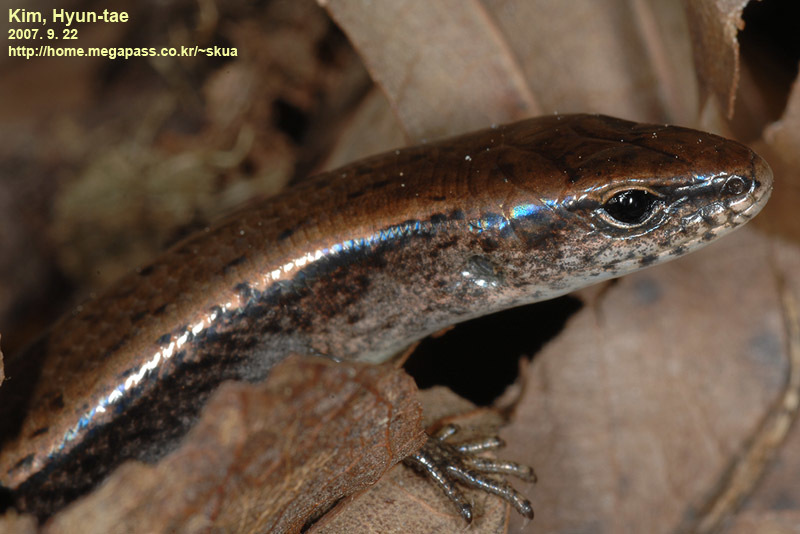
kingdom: Animalia
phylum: Chordata
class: Squamata
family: Scincidae
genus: Scincella
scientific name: Scincella vandenburghi
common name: Tsushima smooth skink
